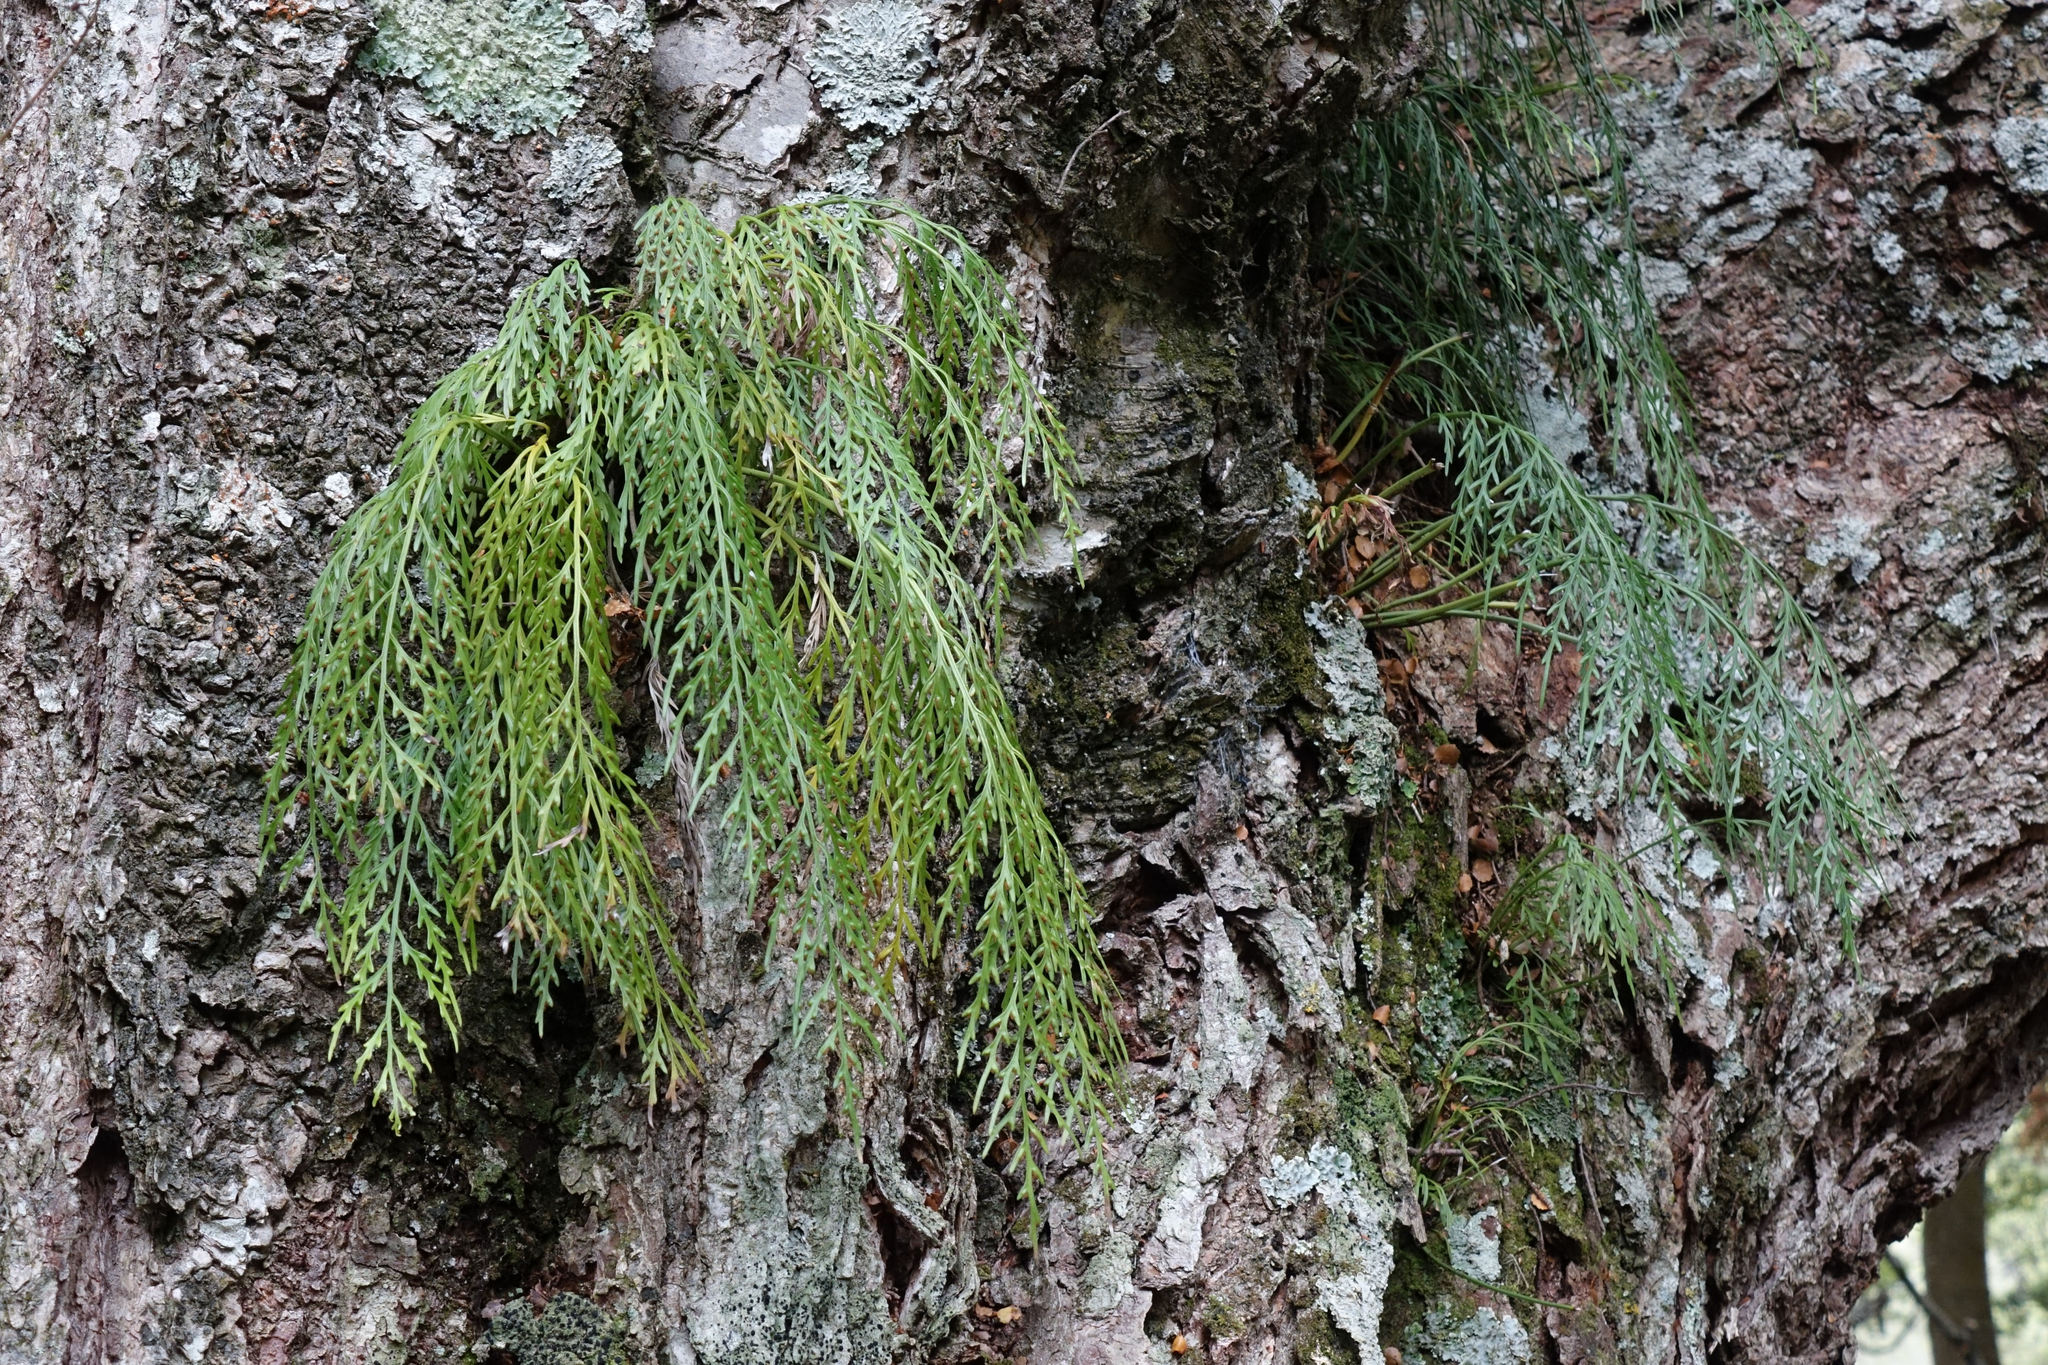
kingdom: Plantae
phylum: Tracheophyta
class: Polypodiopsida
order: Polypodiales
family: Aspleniaceae
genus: Asplenium
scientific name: Asplenium flaccidum
